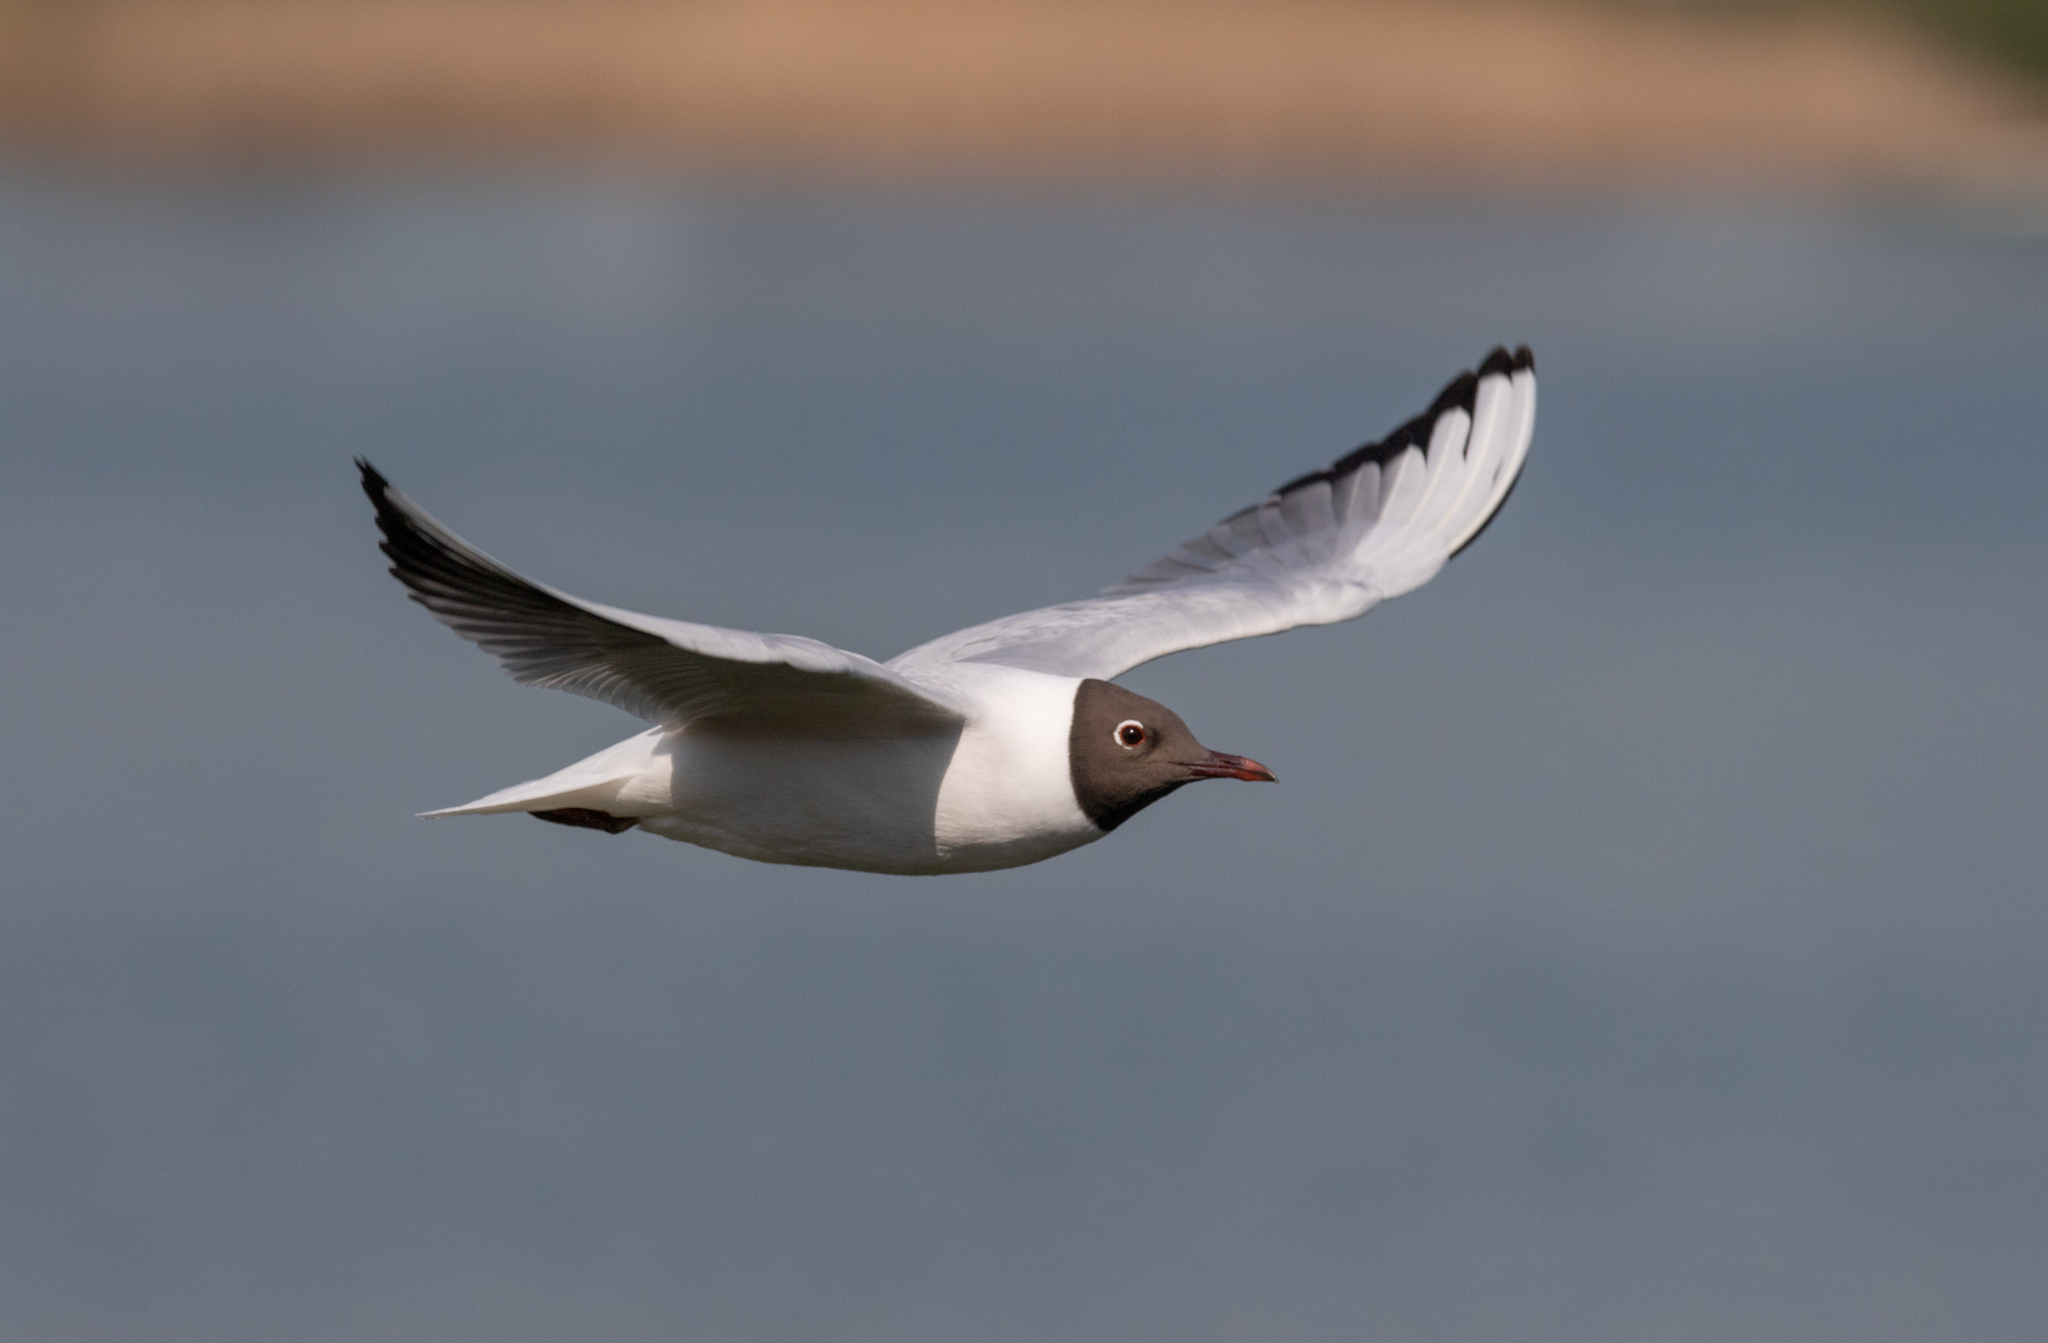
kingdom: Animalia
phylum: Chordata
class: Aves
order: Charadriiformes
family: Laridae
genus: Chroicocephalus
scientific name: Chroicocephalus ridibundus
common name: Black-headed gull
